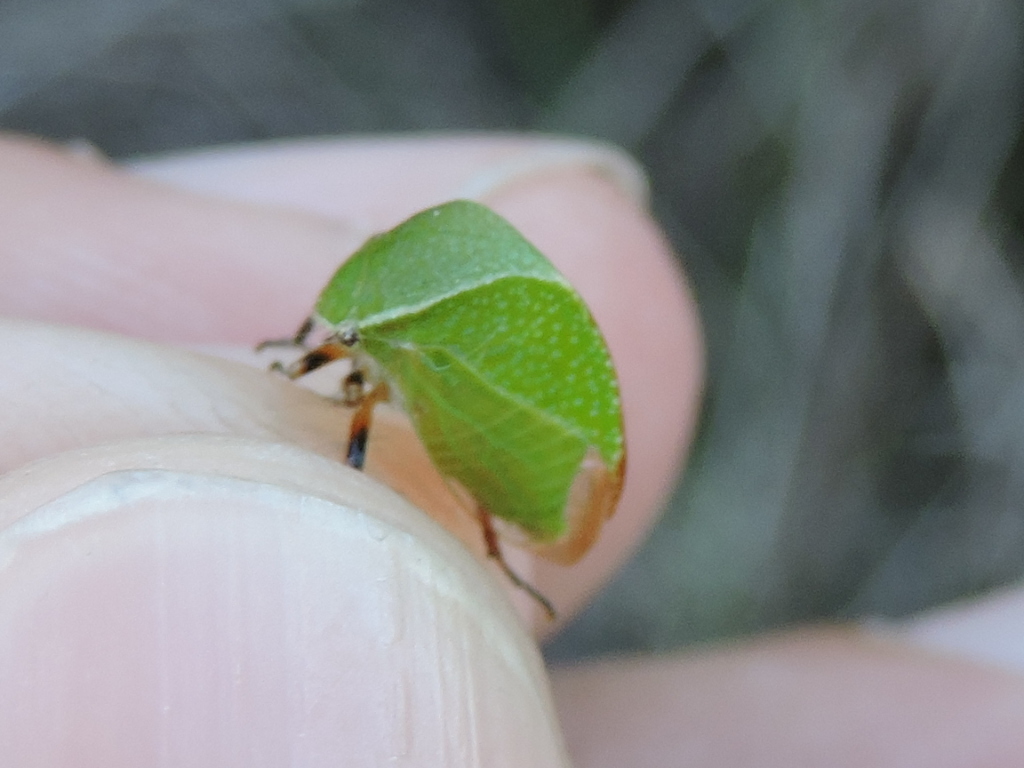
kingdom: Animalia
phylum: Arthropoda
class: Insecta
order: Hemiptera
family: Membracidae
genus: Tortistilus
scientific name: Tortistilus inermis
